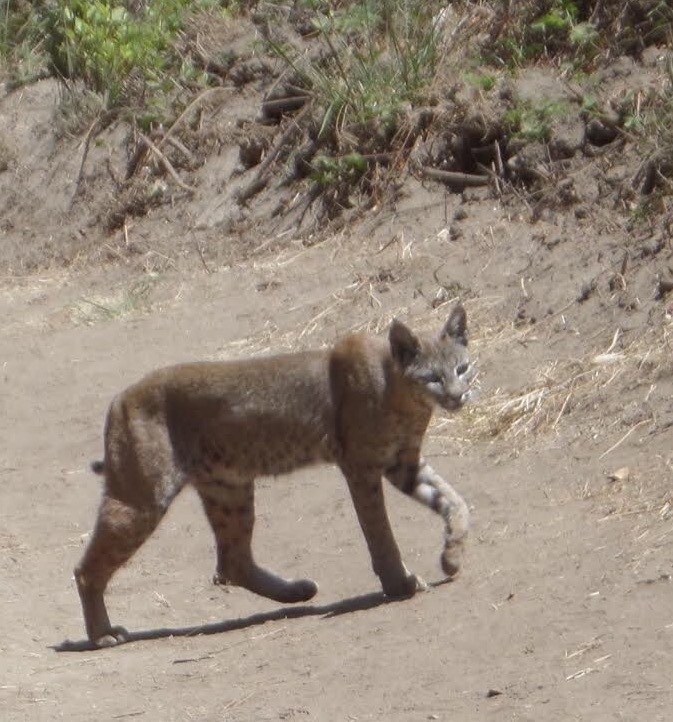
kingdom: Animalia
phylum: Chordata
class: Mammalia
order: Carnivora
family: Felidae
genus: Lynx
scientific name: Lynx rufus
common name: Bobcat
